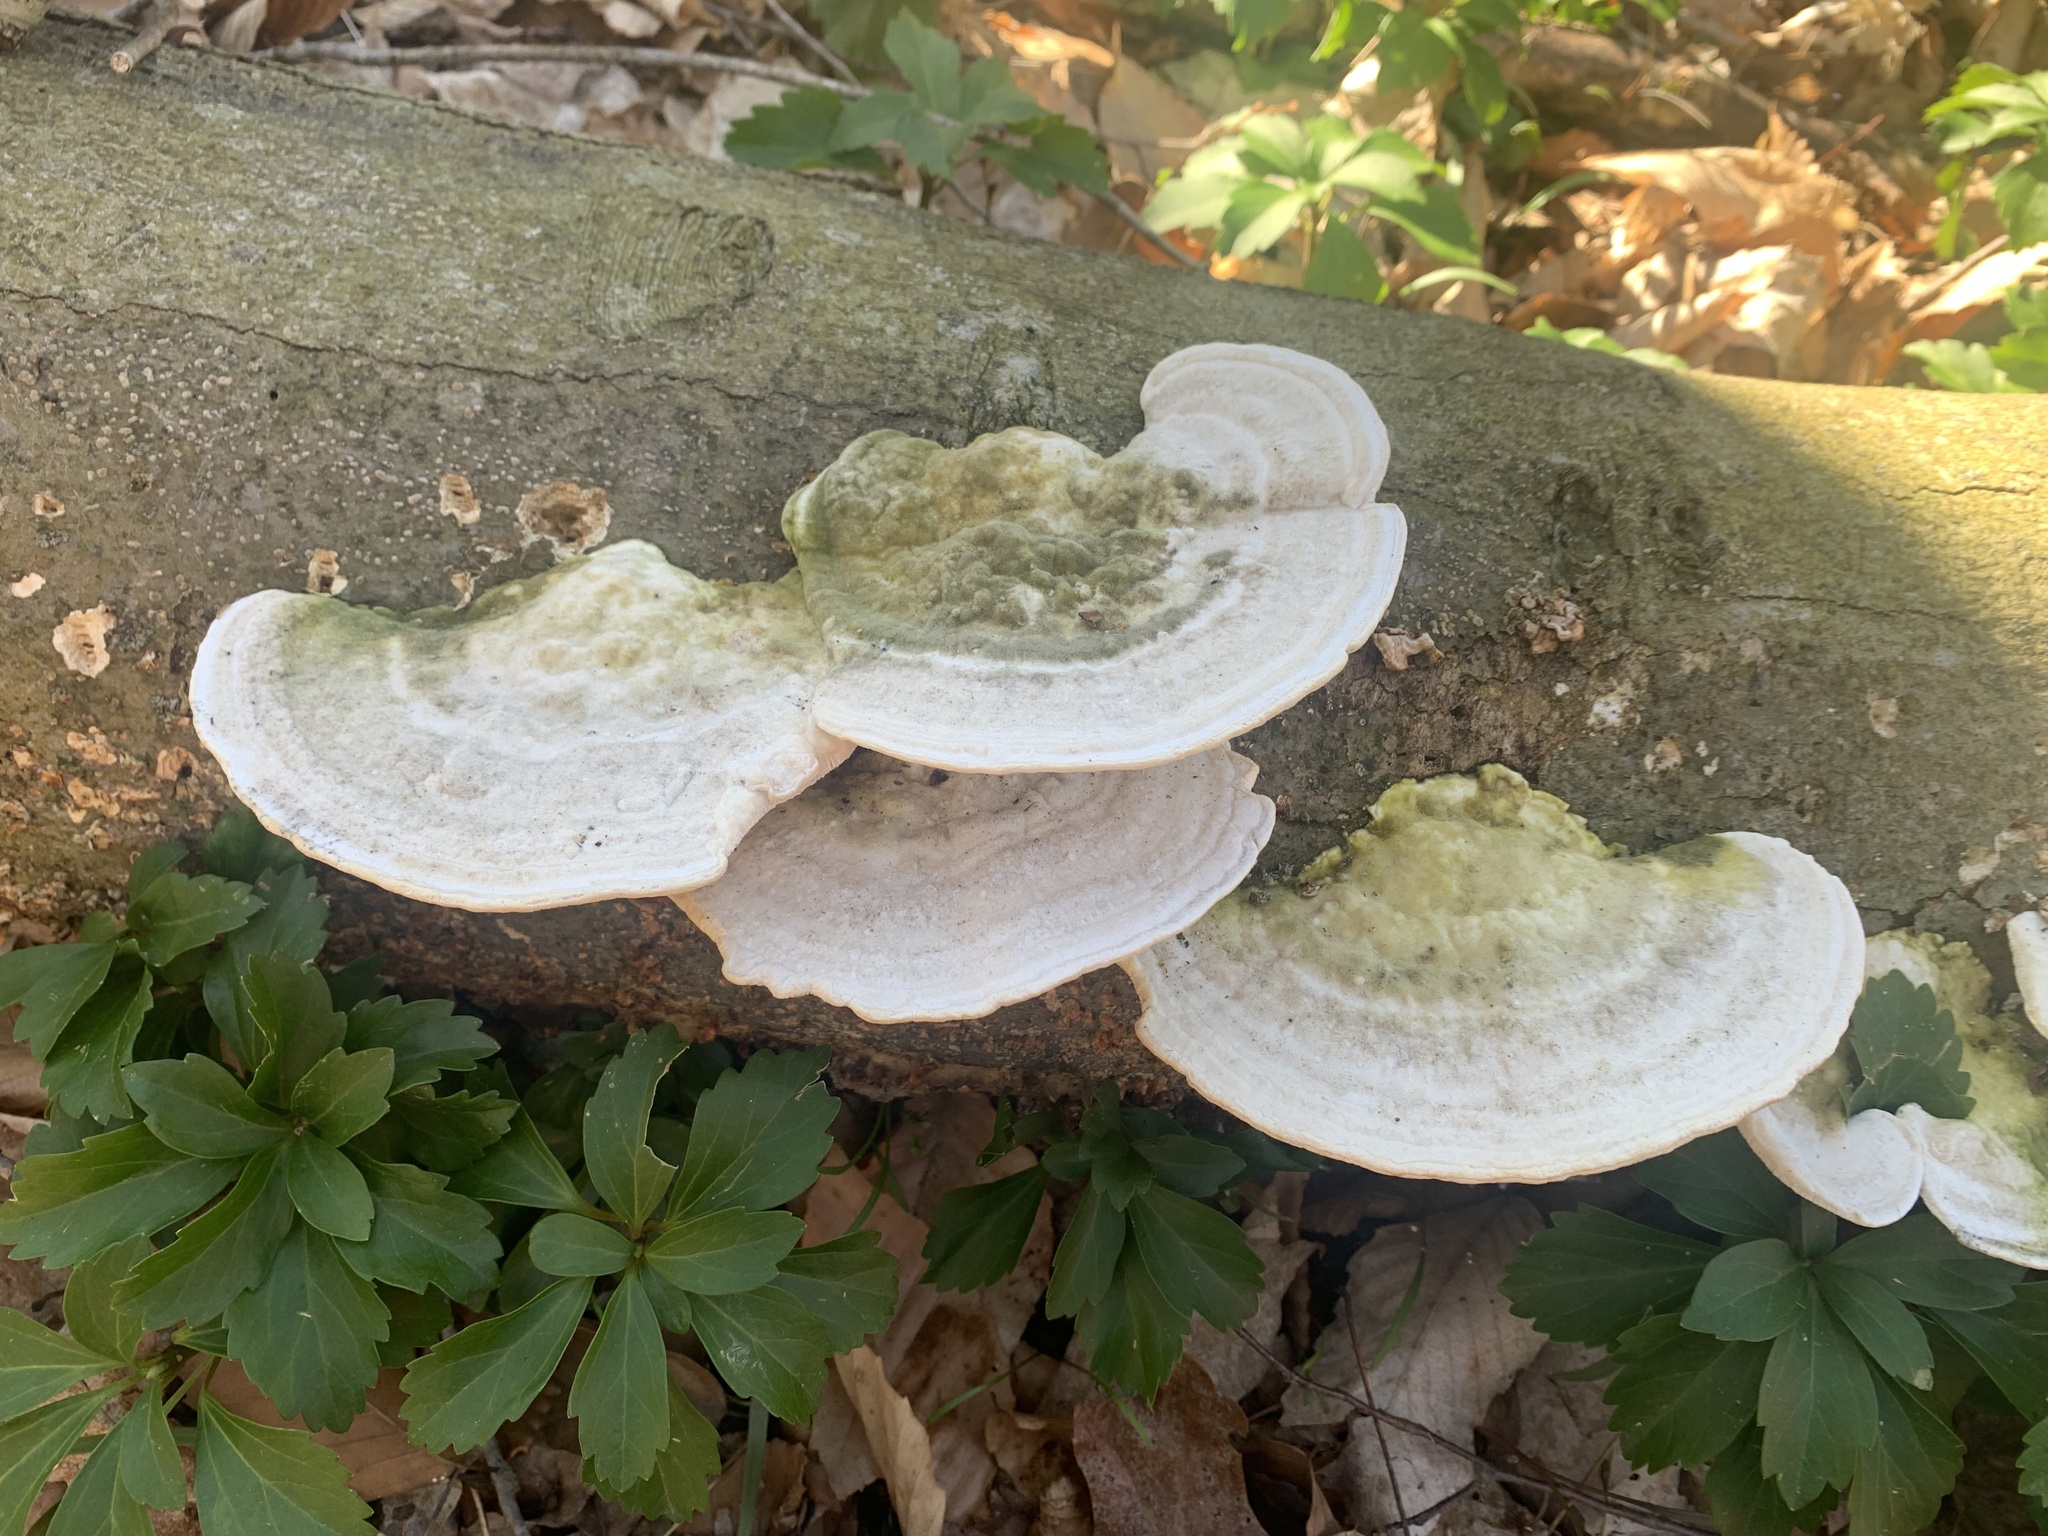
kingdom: Fungi
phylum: Basidiomycota
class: Agaricomycetes
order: Polyporales
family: Polyporaceae
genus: Trametes
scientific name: Trametes gibbosa
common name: Lumpy bracket
